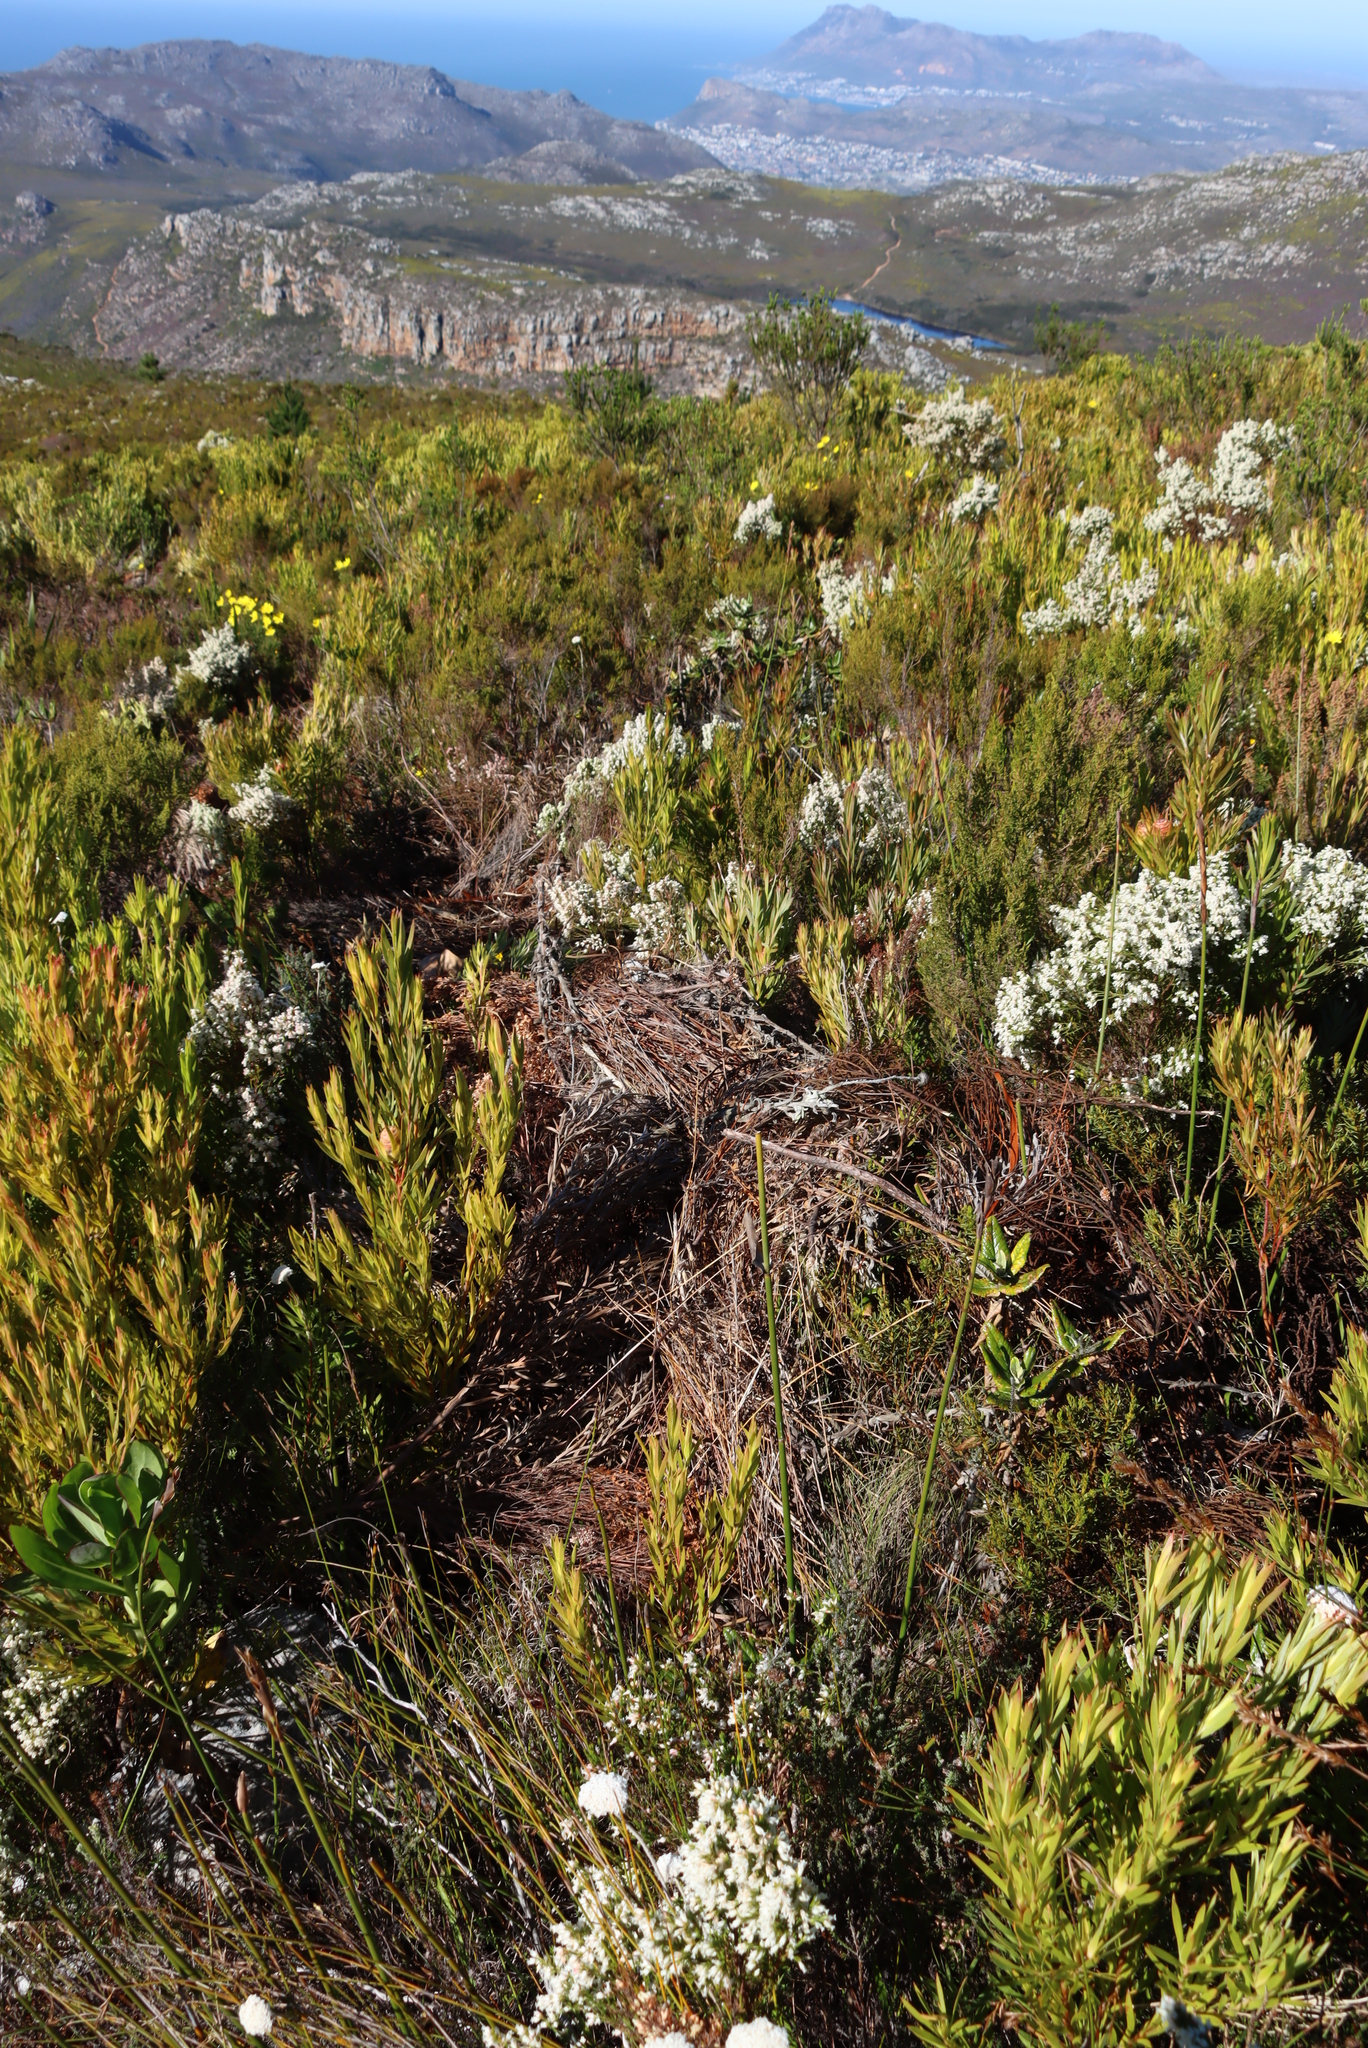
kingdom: Plantae
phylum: Tracheophyta
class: Magnoliopsida
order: Ericales
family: Ericaceae
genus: Erica
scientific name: Erica lutea
